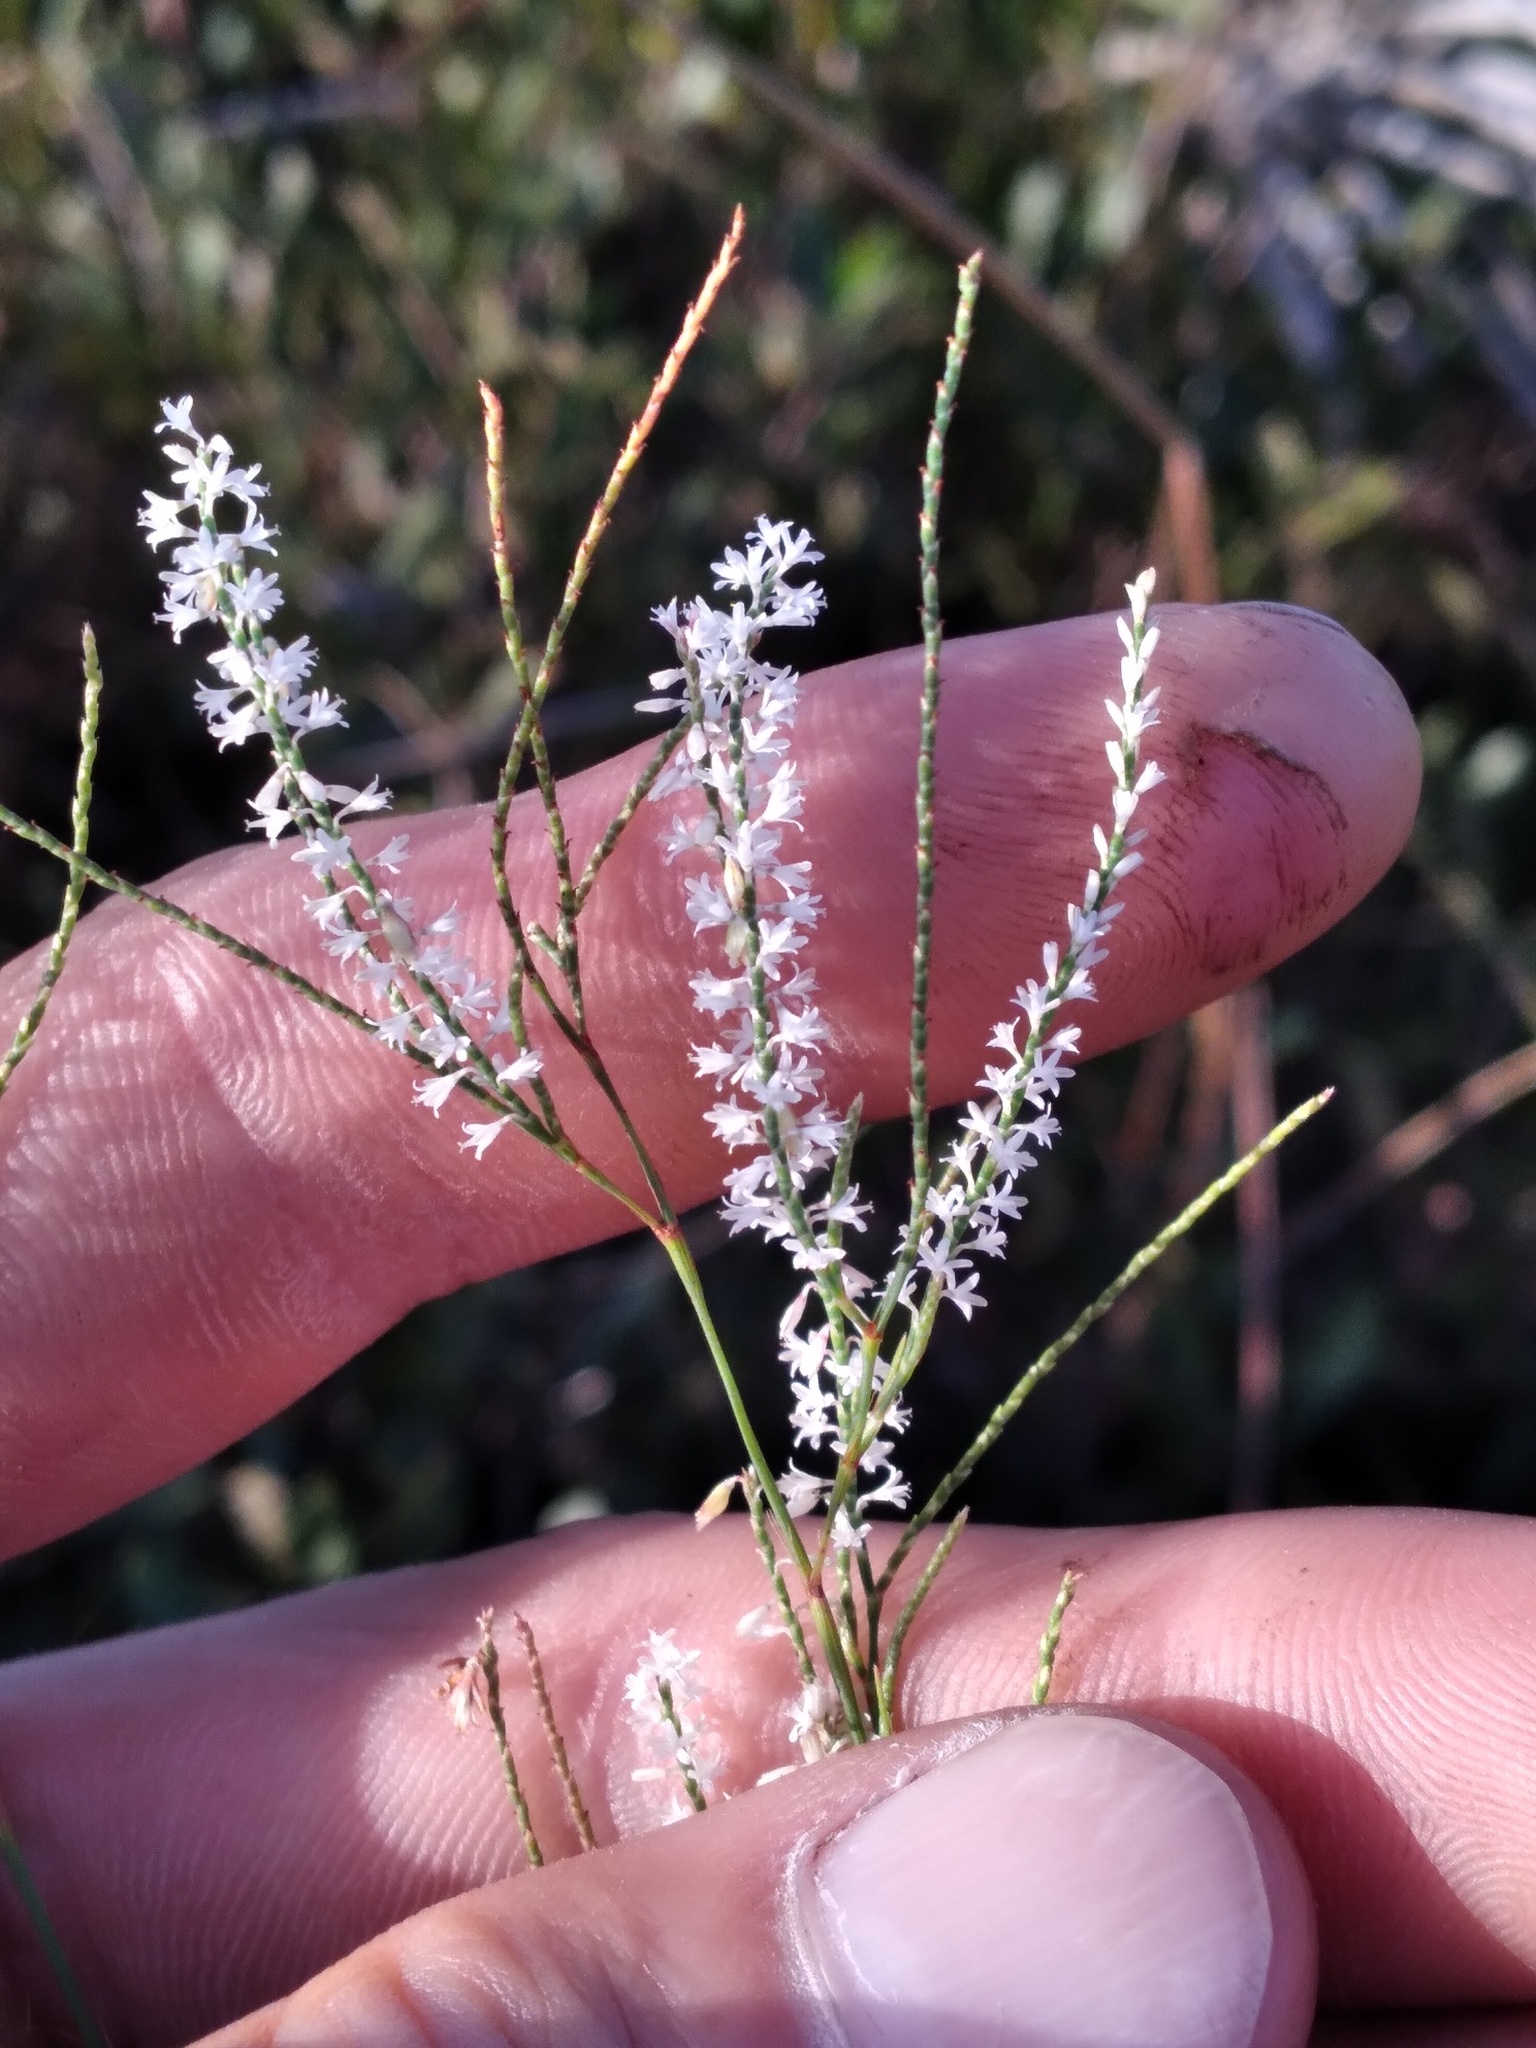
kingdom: Plantae
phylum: Tracheophyta
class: Magnoliopsida
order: Caryophyllales
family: Polygonaceae
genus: Polygonella
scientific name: Polygonella ciliata
